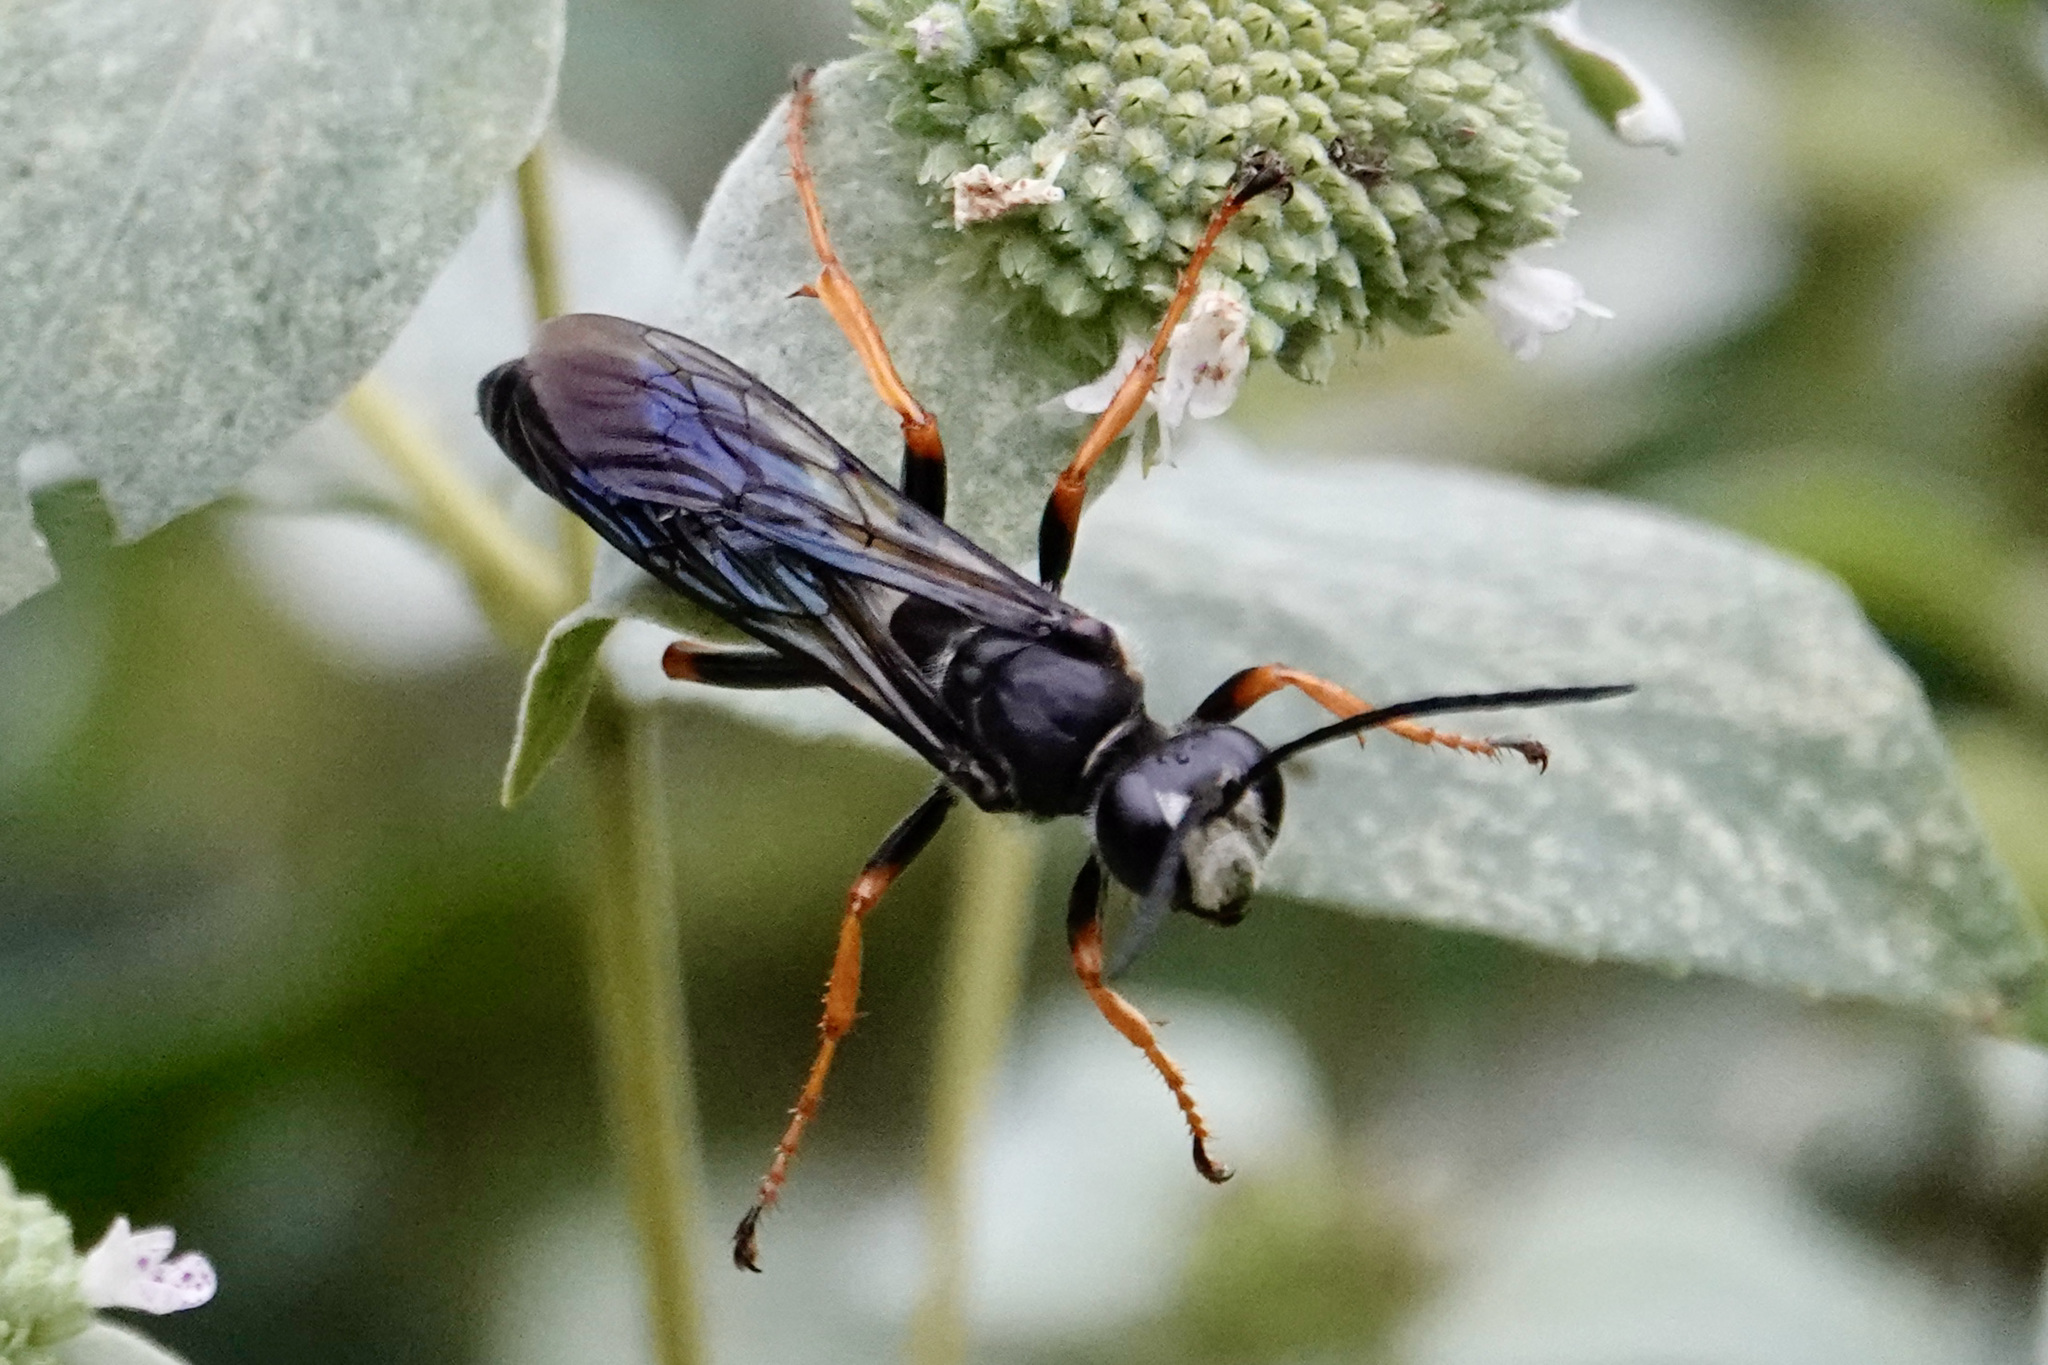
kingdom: Animalia
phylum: Arthropoda
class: Insecta
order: Hymenoptera
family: Sphecidae
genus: Sphex
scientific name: Sphex nudus
